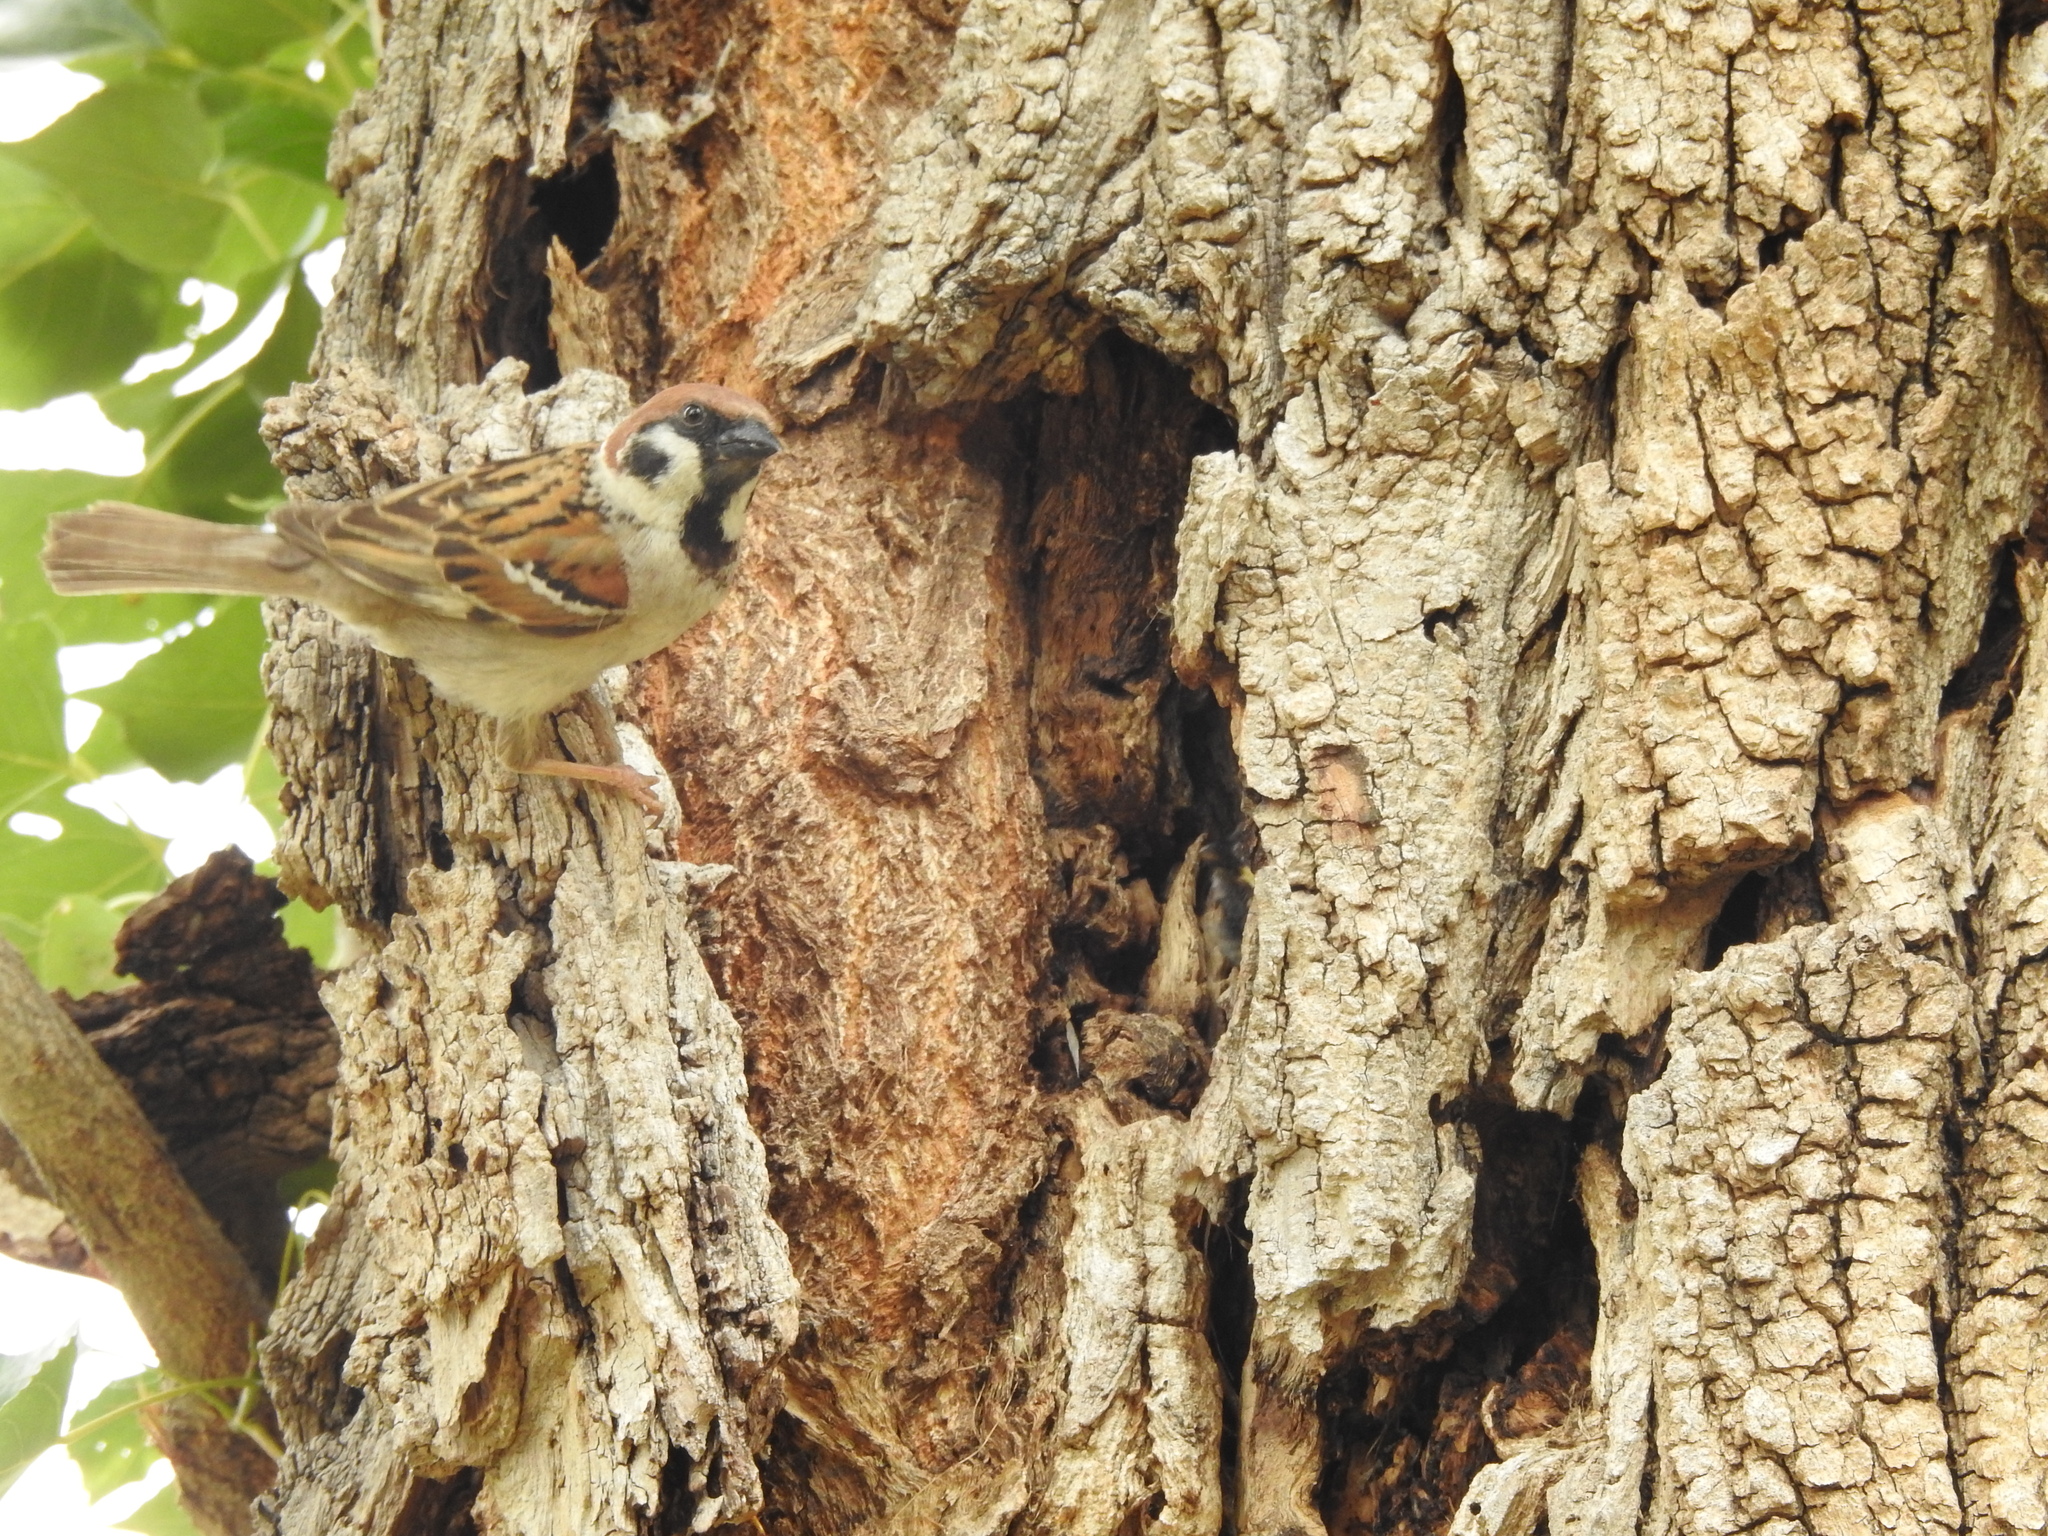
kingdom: Animalia
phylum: Chordata
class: Aves
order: Passeriformes
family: Passeridae
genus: Passer
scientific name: Passer montanus
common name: Eurasian tree sparrow
